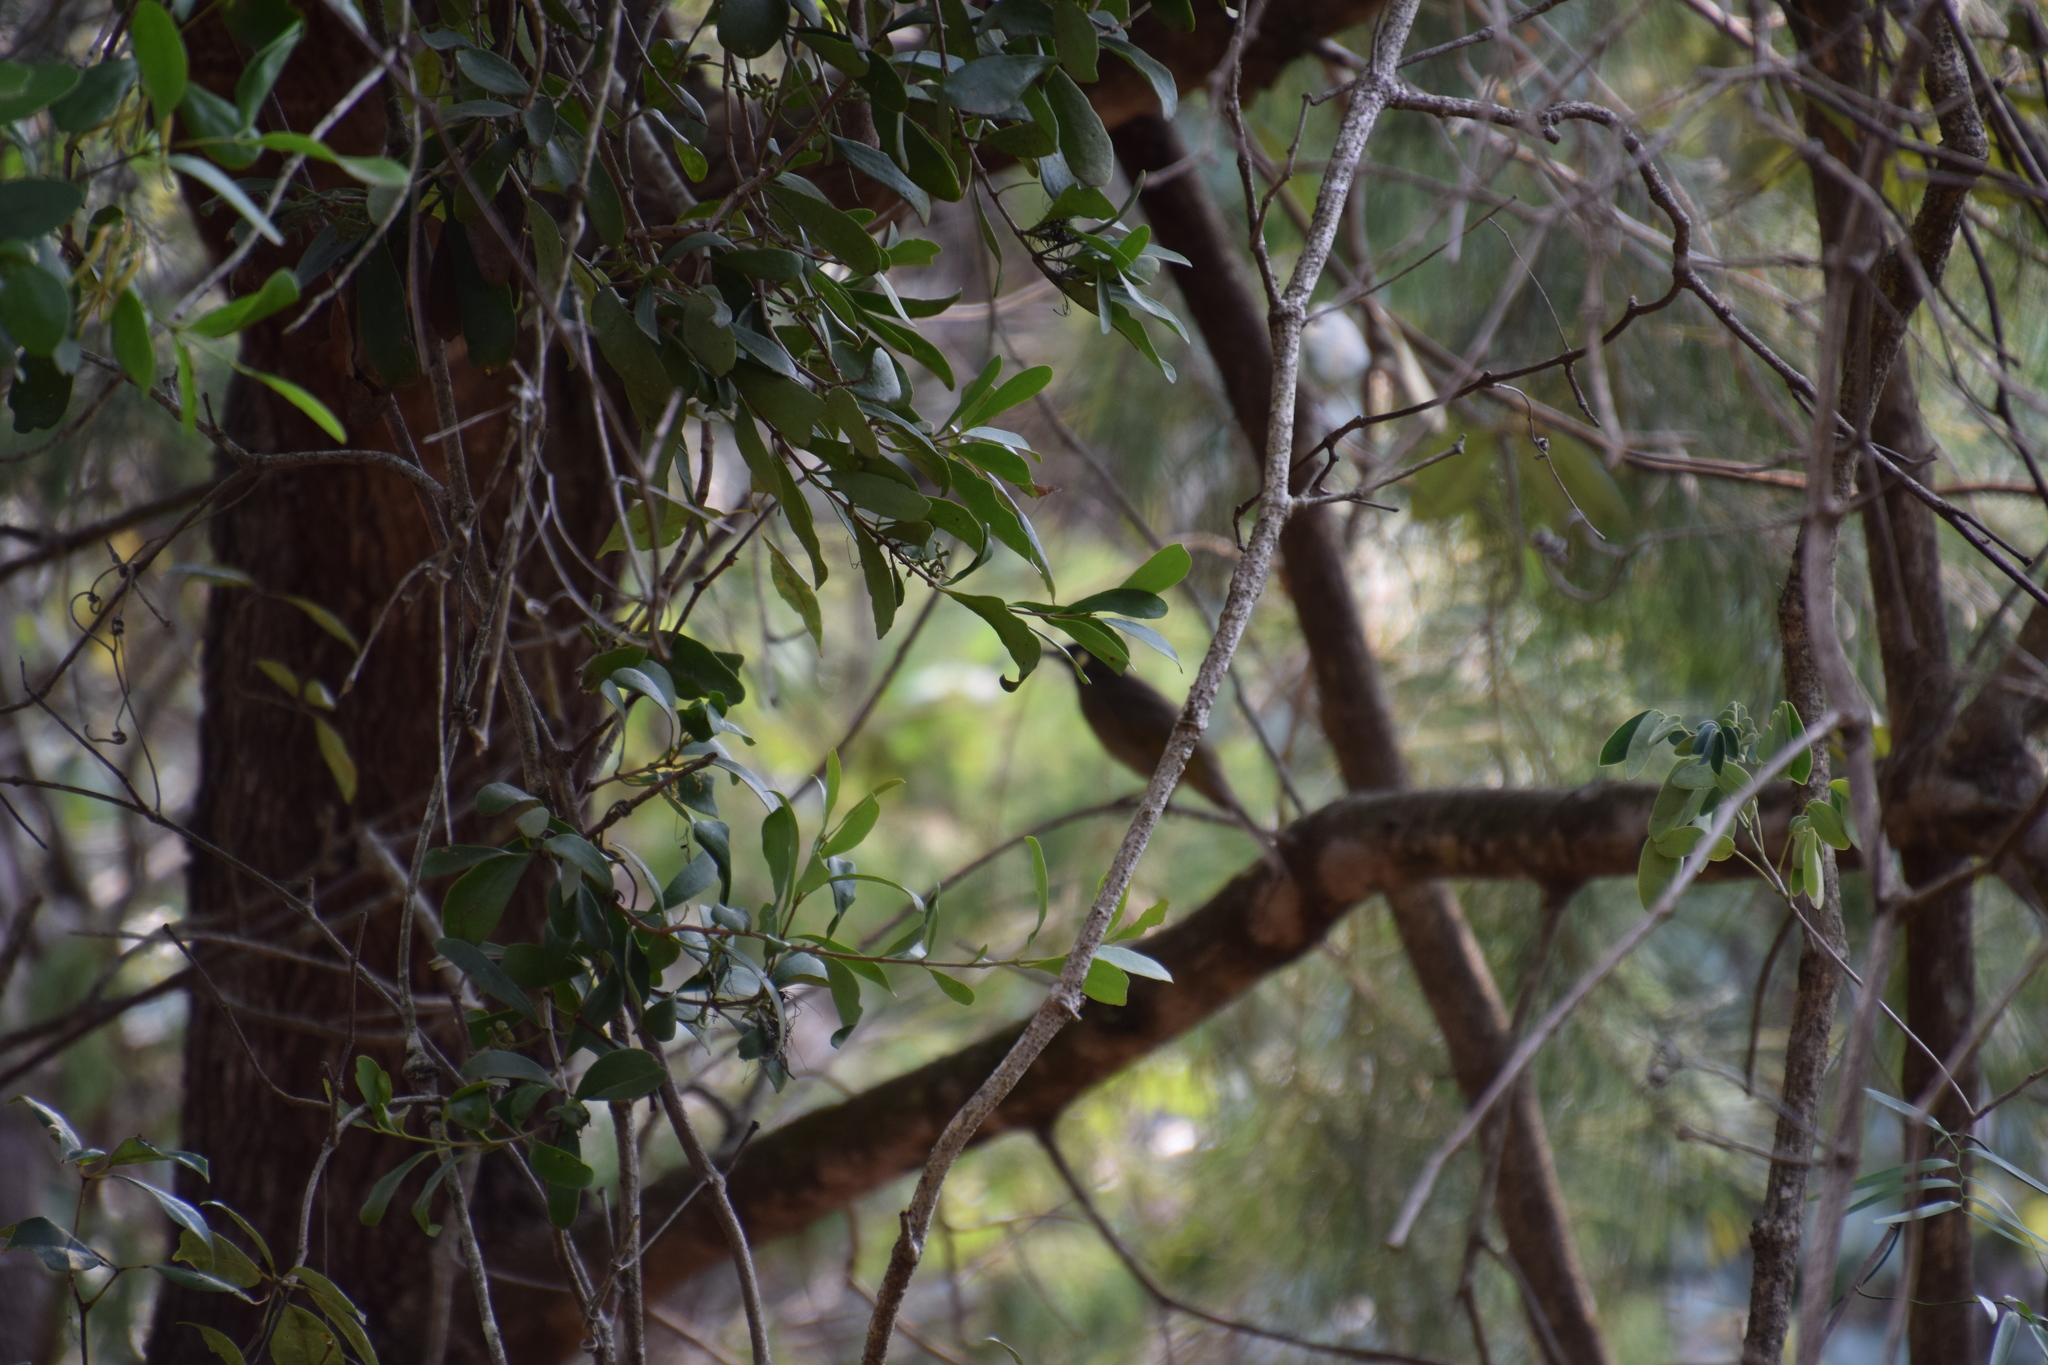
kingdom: Animalia
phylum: Chordata
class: Aves
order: Passeriformes
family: Meliphagidae
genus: Meliphaga
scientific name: Meliphaga lewinii
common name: Lewin's honeyeater
